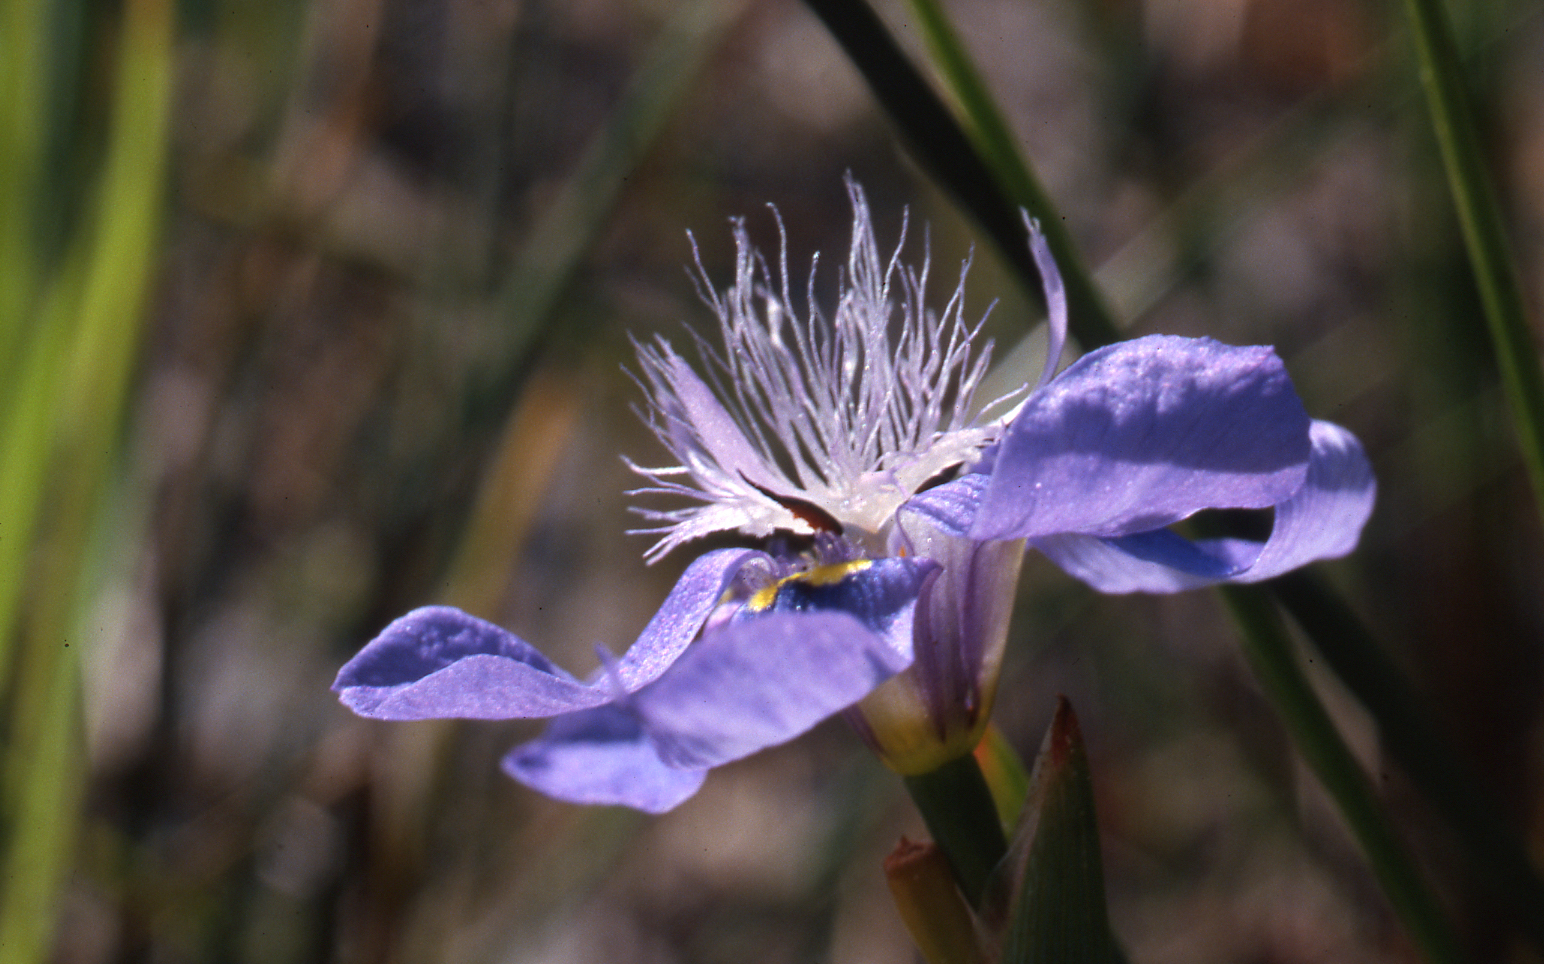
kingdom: Plantae
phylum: Tracheophyta
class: Liliopsida
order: Asparagales
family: Iridaceae
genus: Moraea
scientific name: Moraea lugubris
